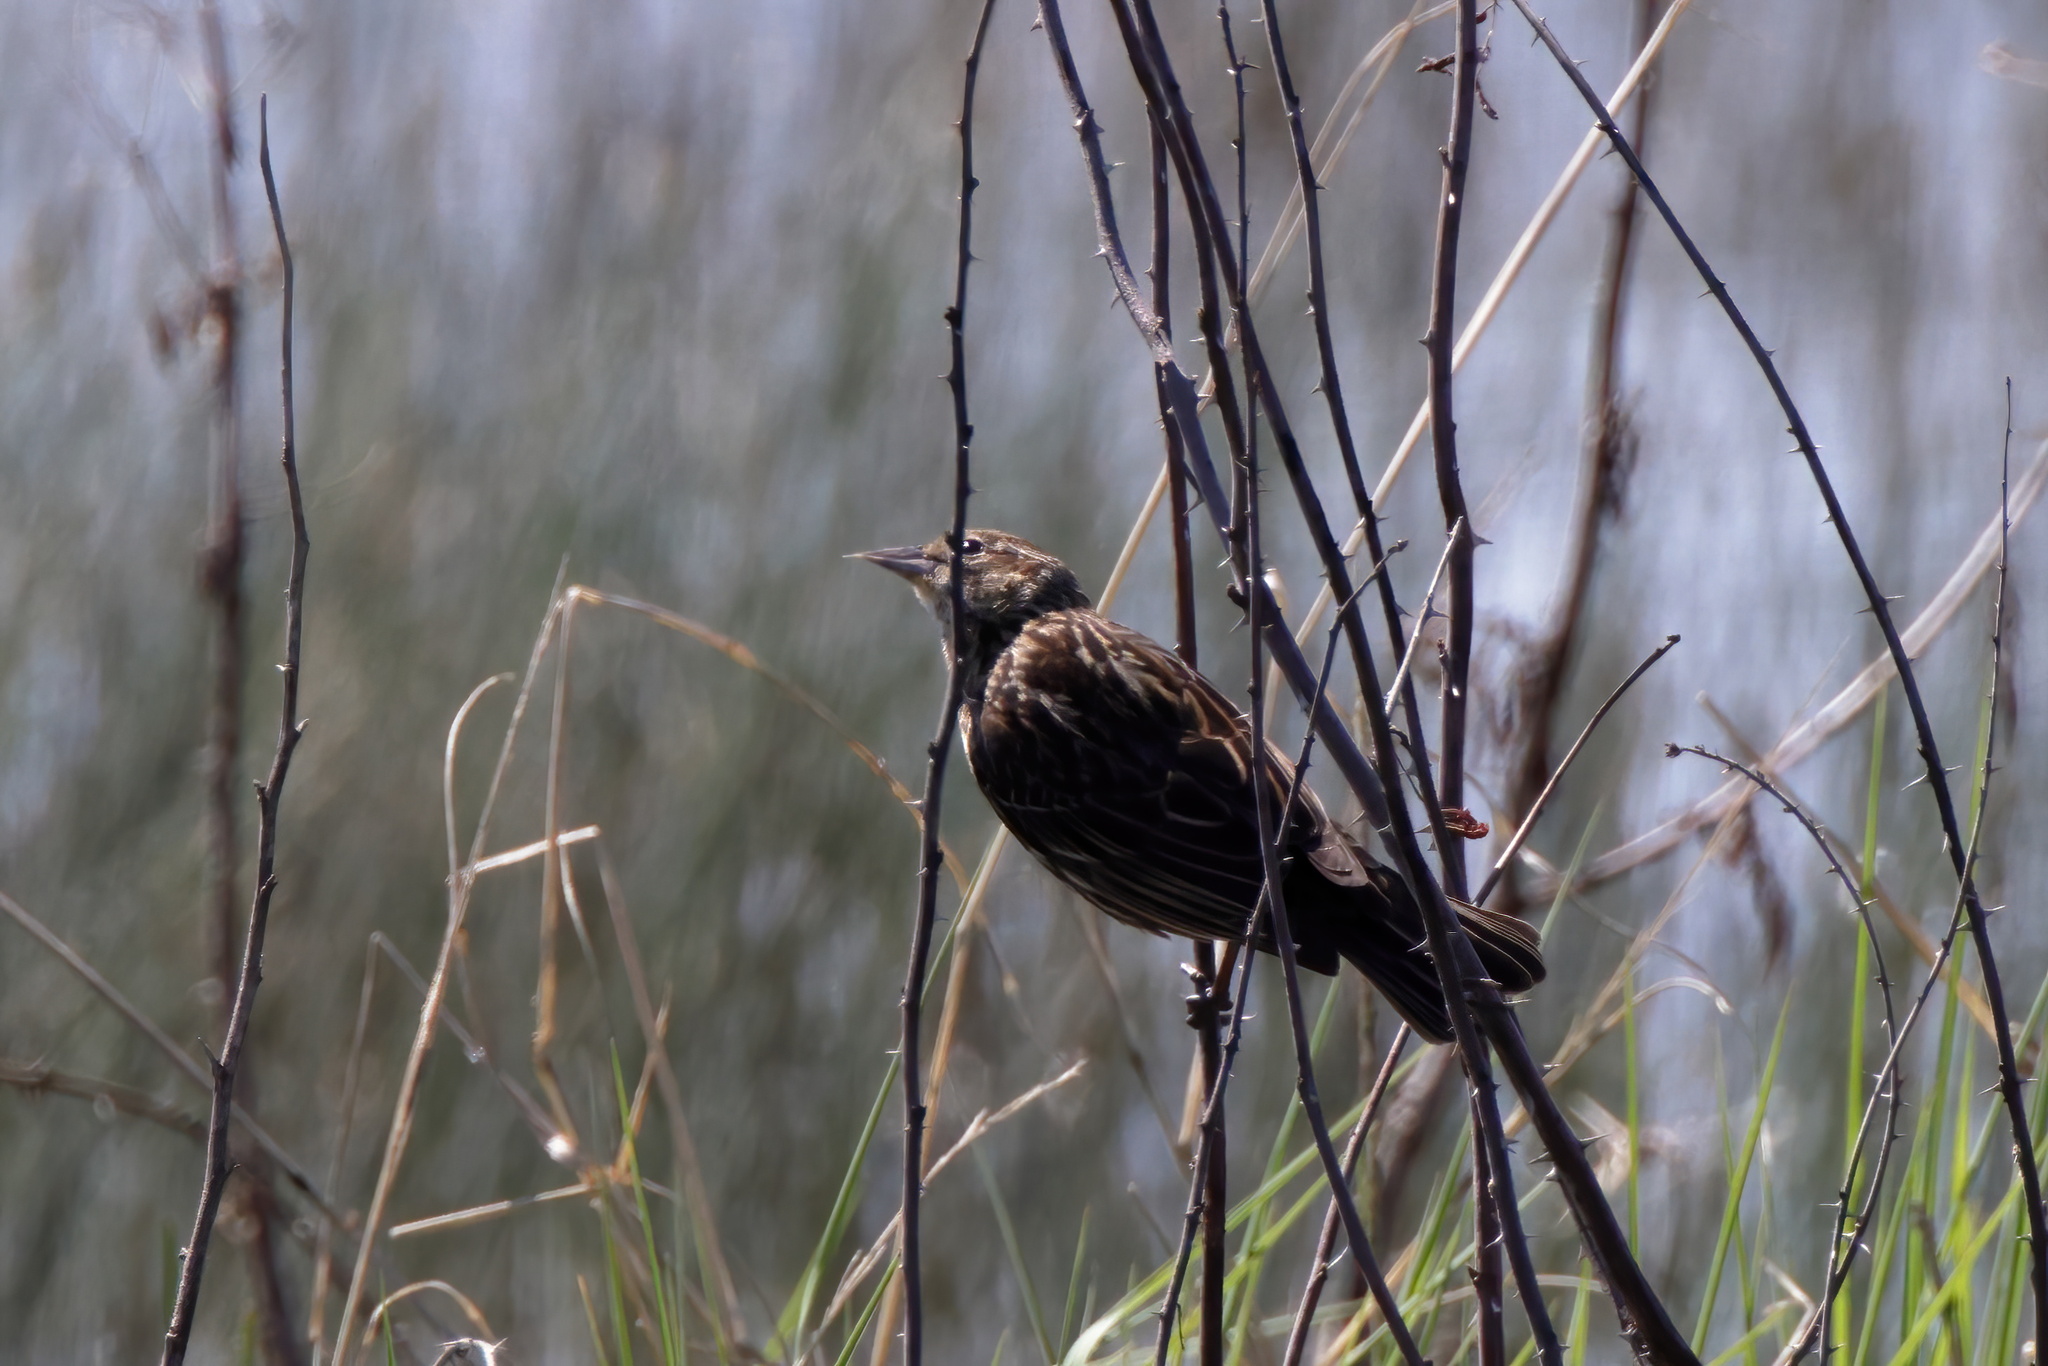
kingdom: Animalia
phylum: Chordata
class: Aves
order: Passeriformes
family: Icteridae
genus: Agelaius
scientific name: Agelaius phoeniceus
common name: Red-winged blackbird
